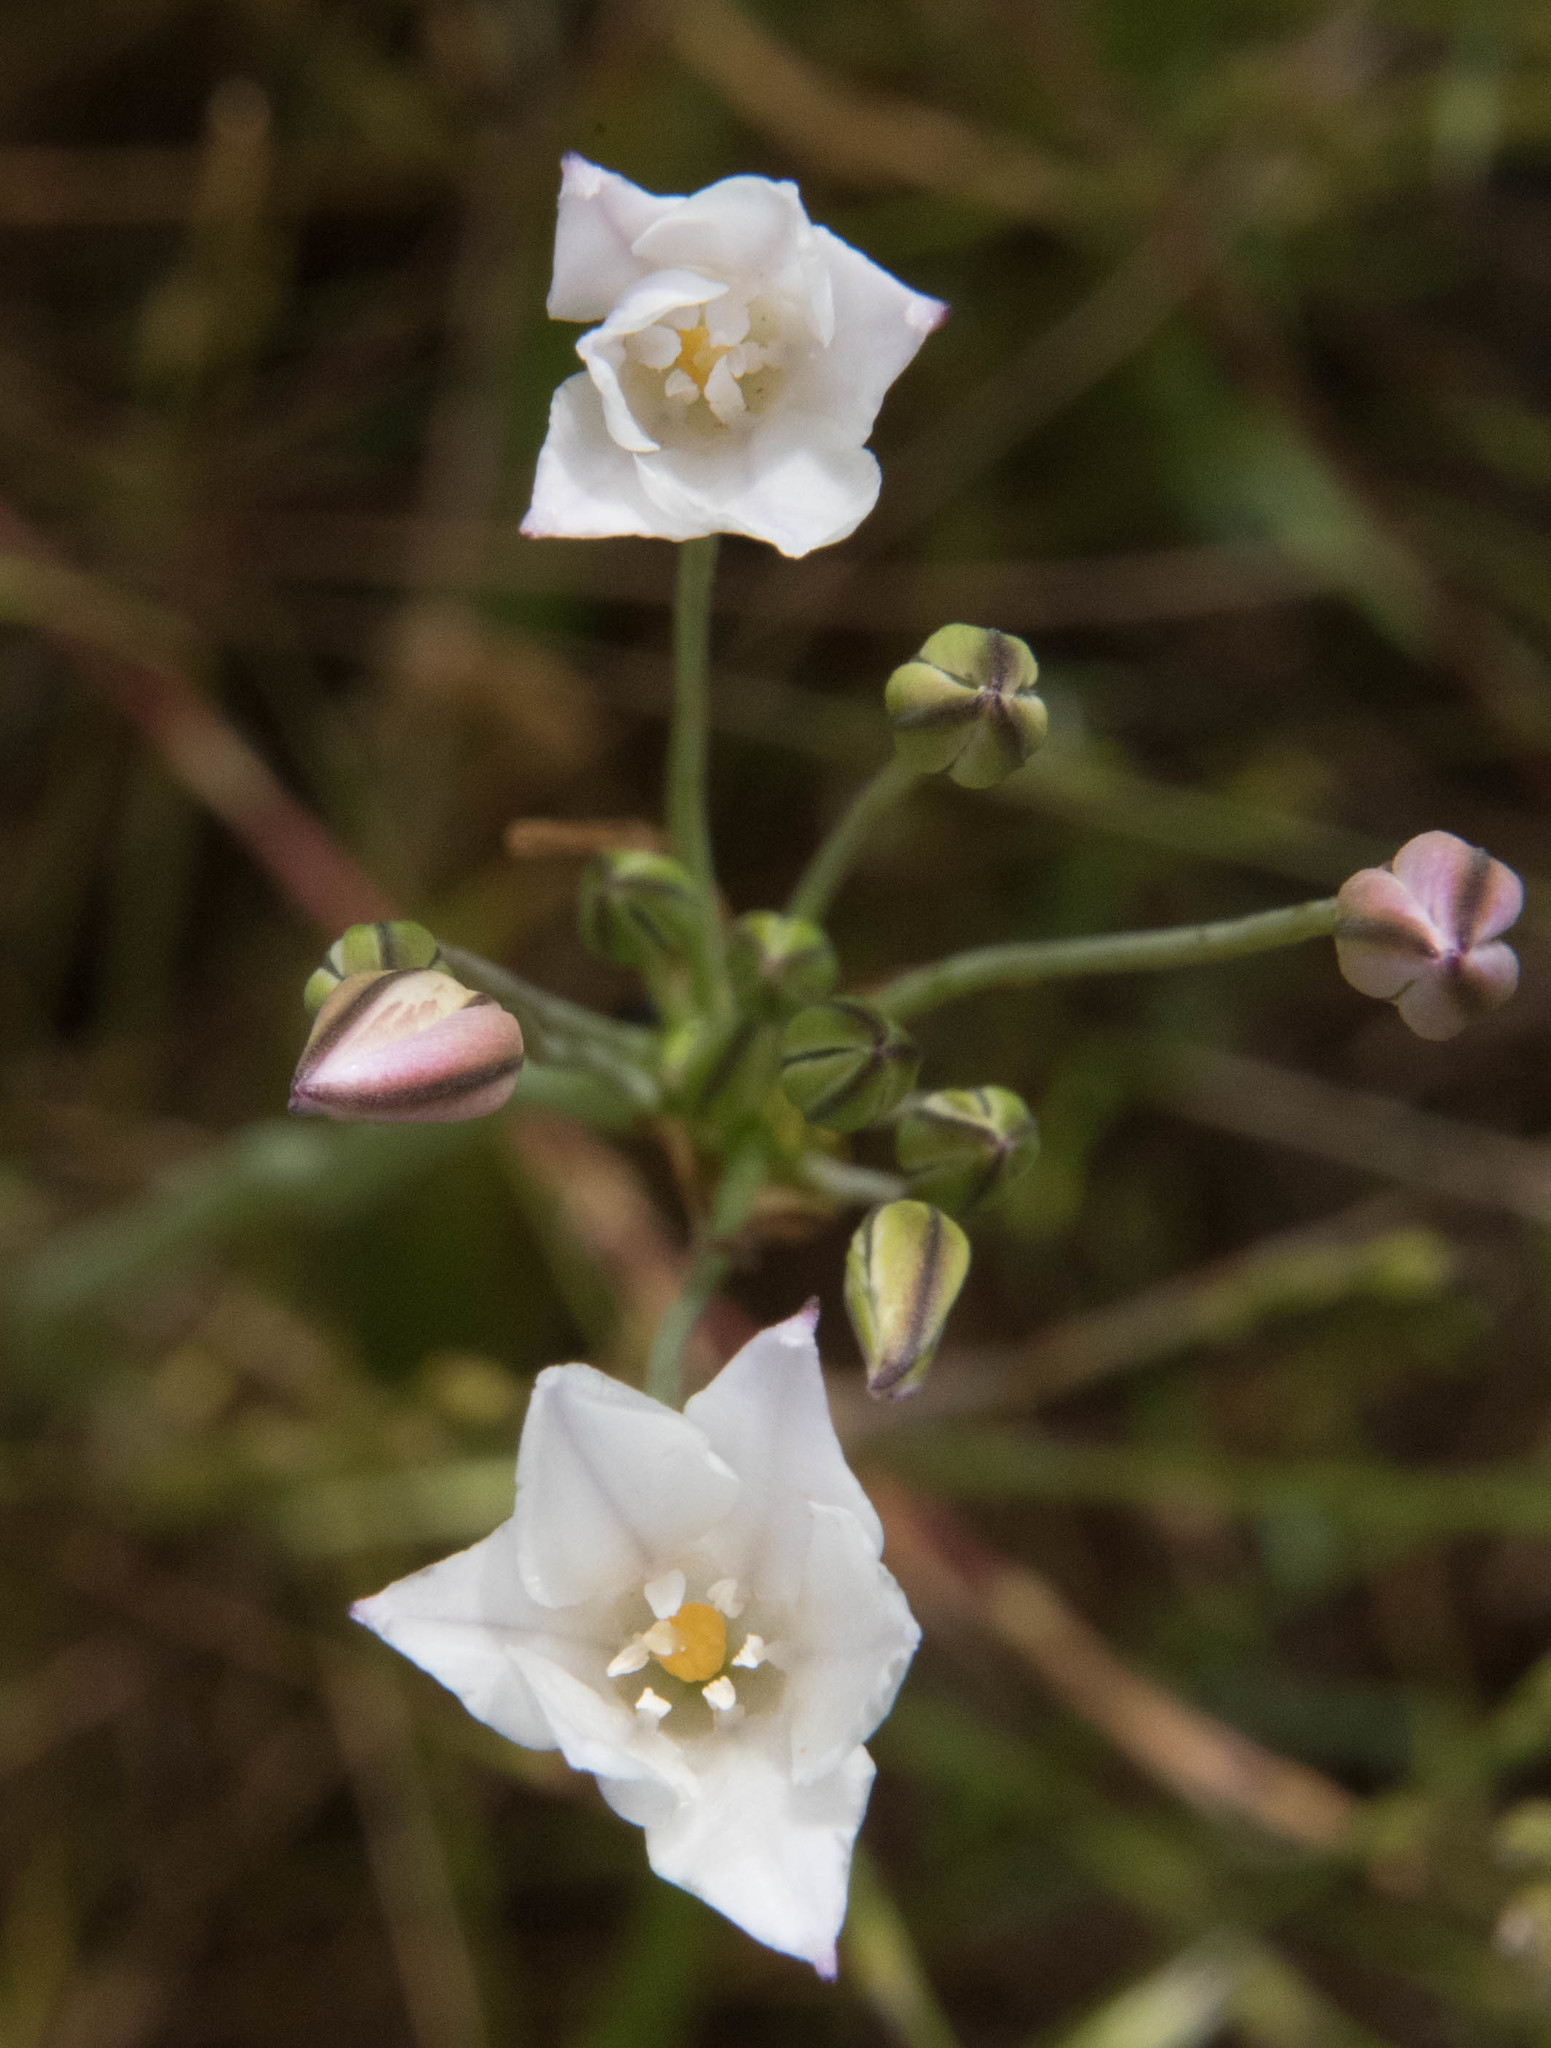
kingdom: Plantae
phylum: Tracheophyta
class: Liliopsida
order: Asparagales
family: Asparagaceae
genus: Triteleia
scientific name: Triteleia peduncularis
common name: Long-ray brodiaea
